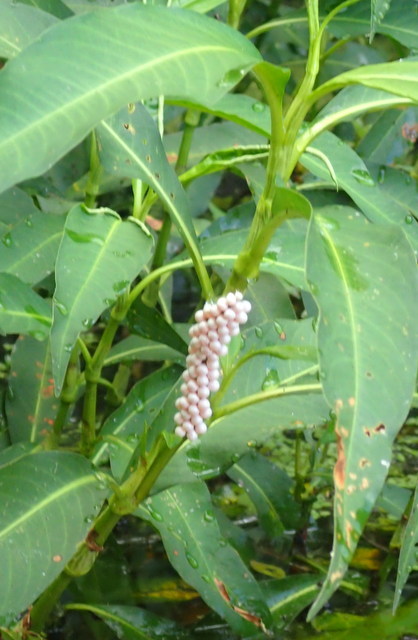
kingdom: Animalia
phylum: Mollusca
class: Gastropoda
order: Architaenioglossa
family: Ampullariidae
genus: Pomacea
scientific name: Pomacea paludosa
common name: Florida applesnail
